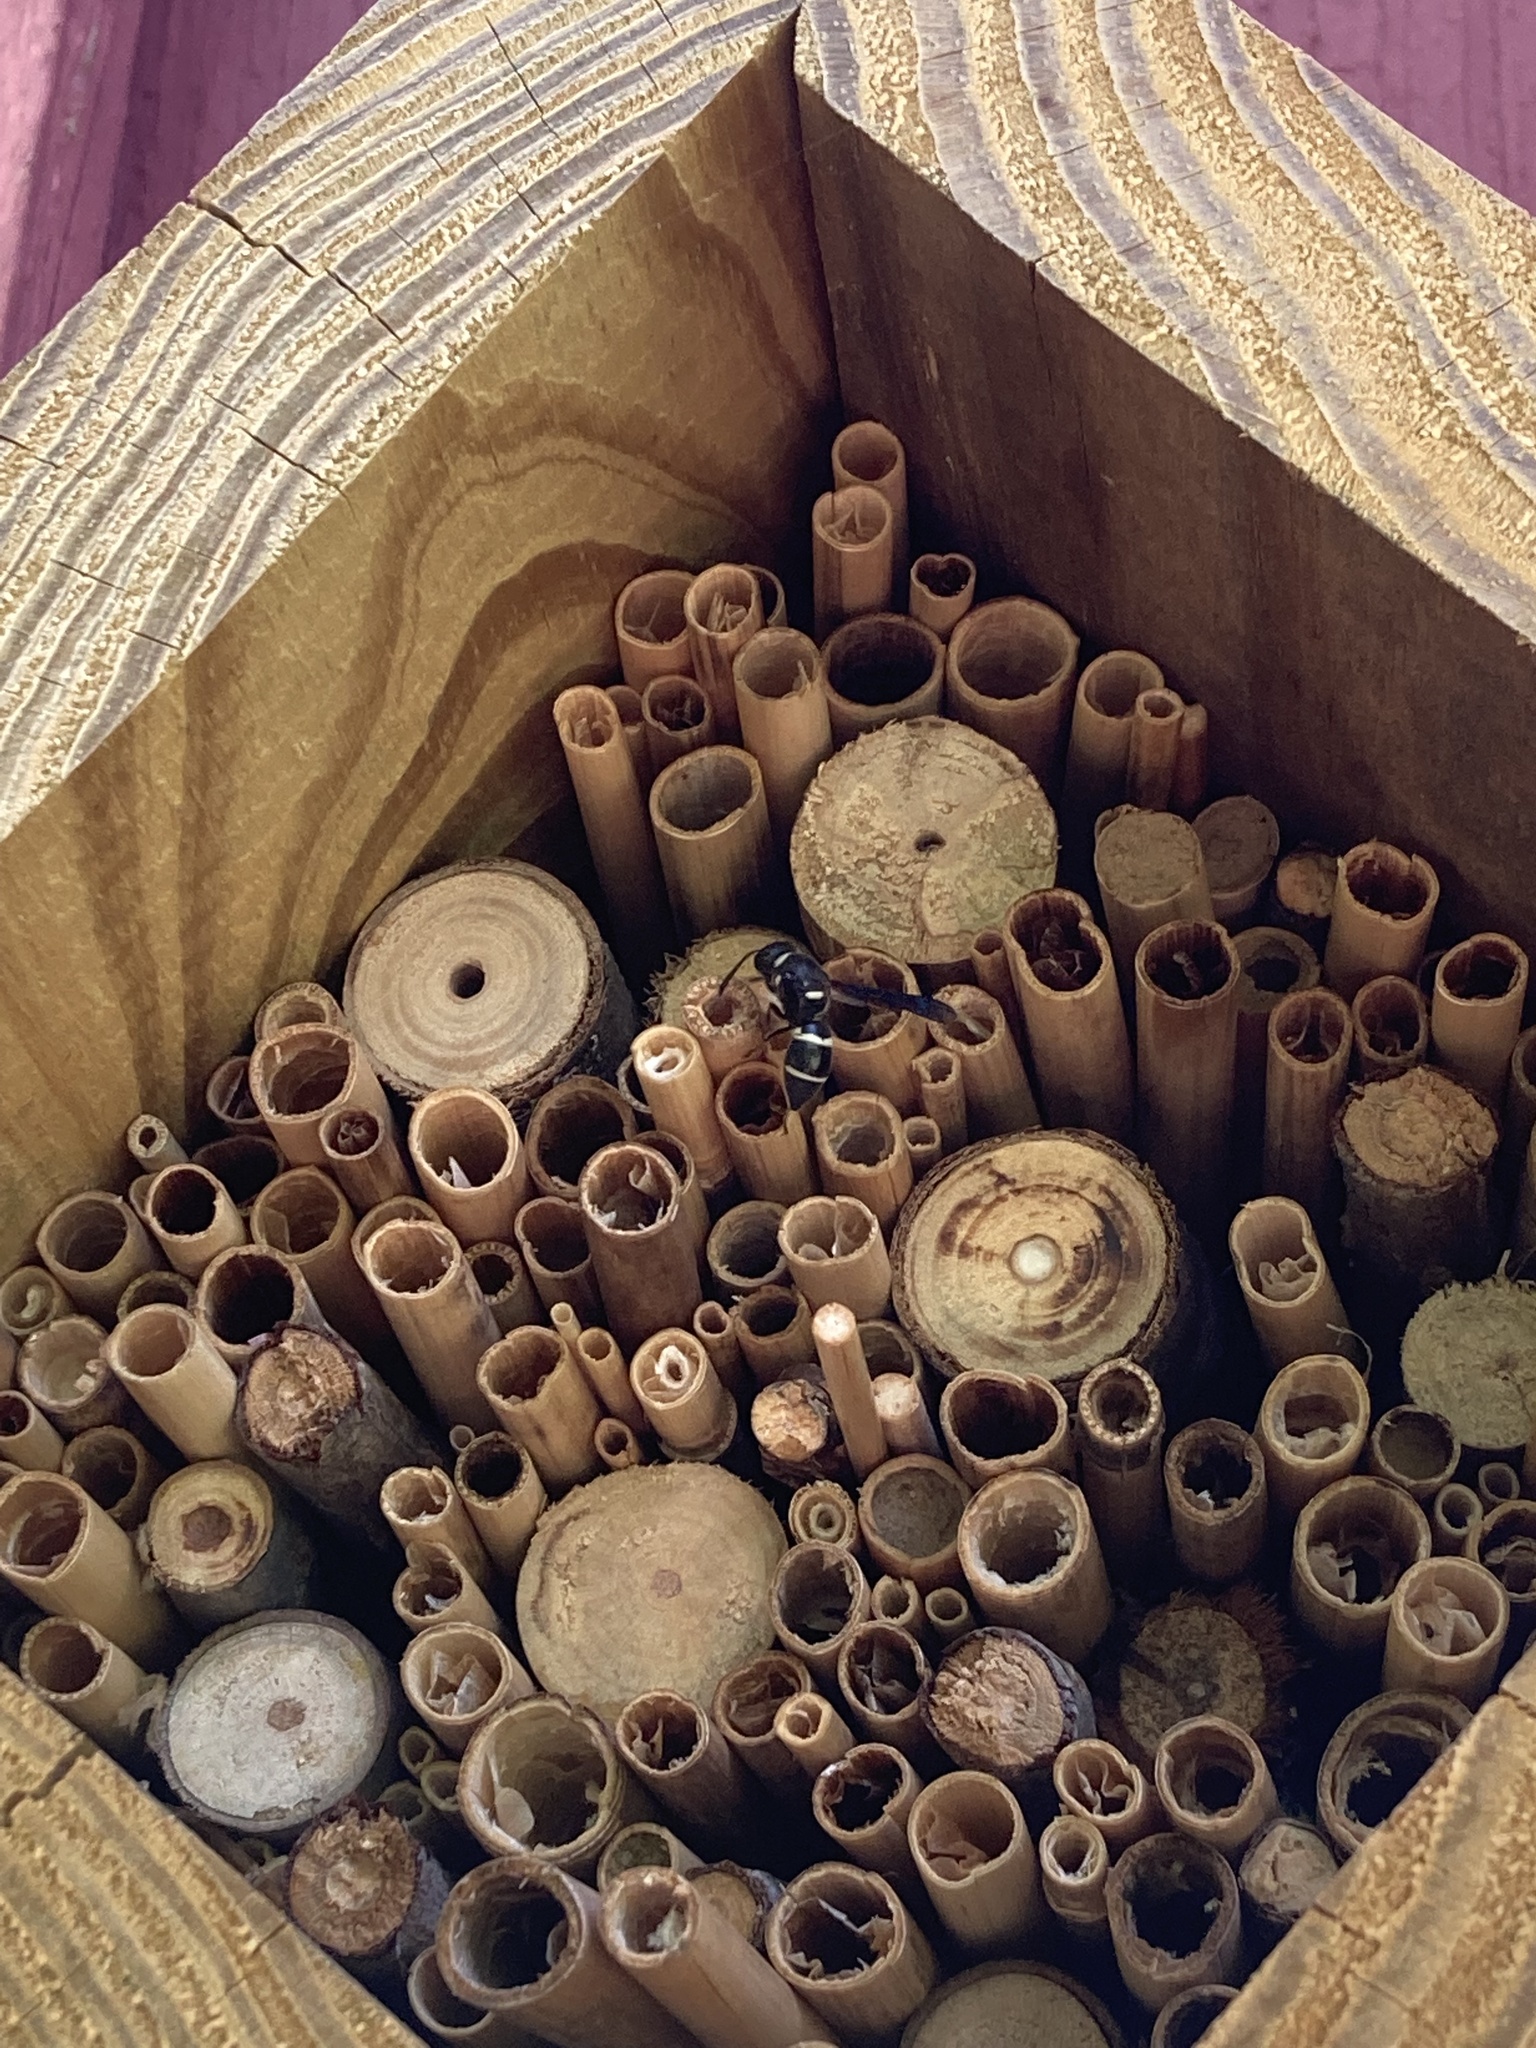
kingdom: Animalia
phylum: Arthropoda
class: Insecta
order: Hymenoptera
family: Eumenidae
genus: Euodynerus
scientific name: Euodynerus megaera
